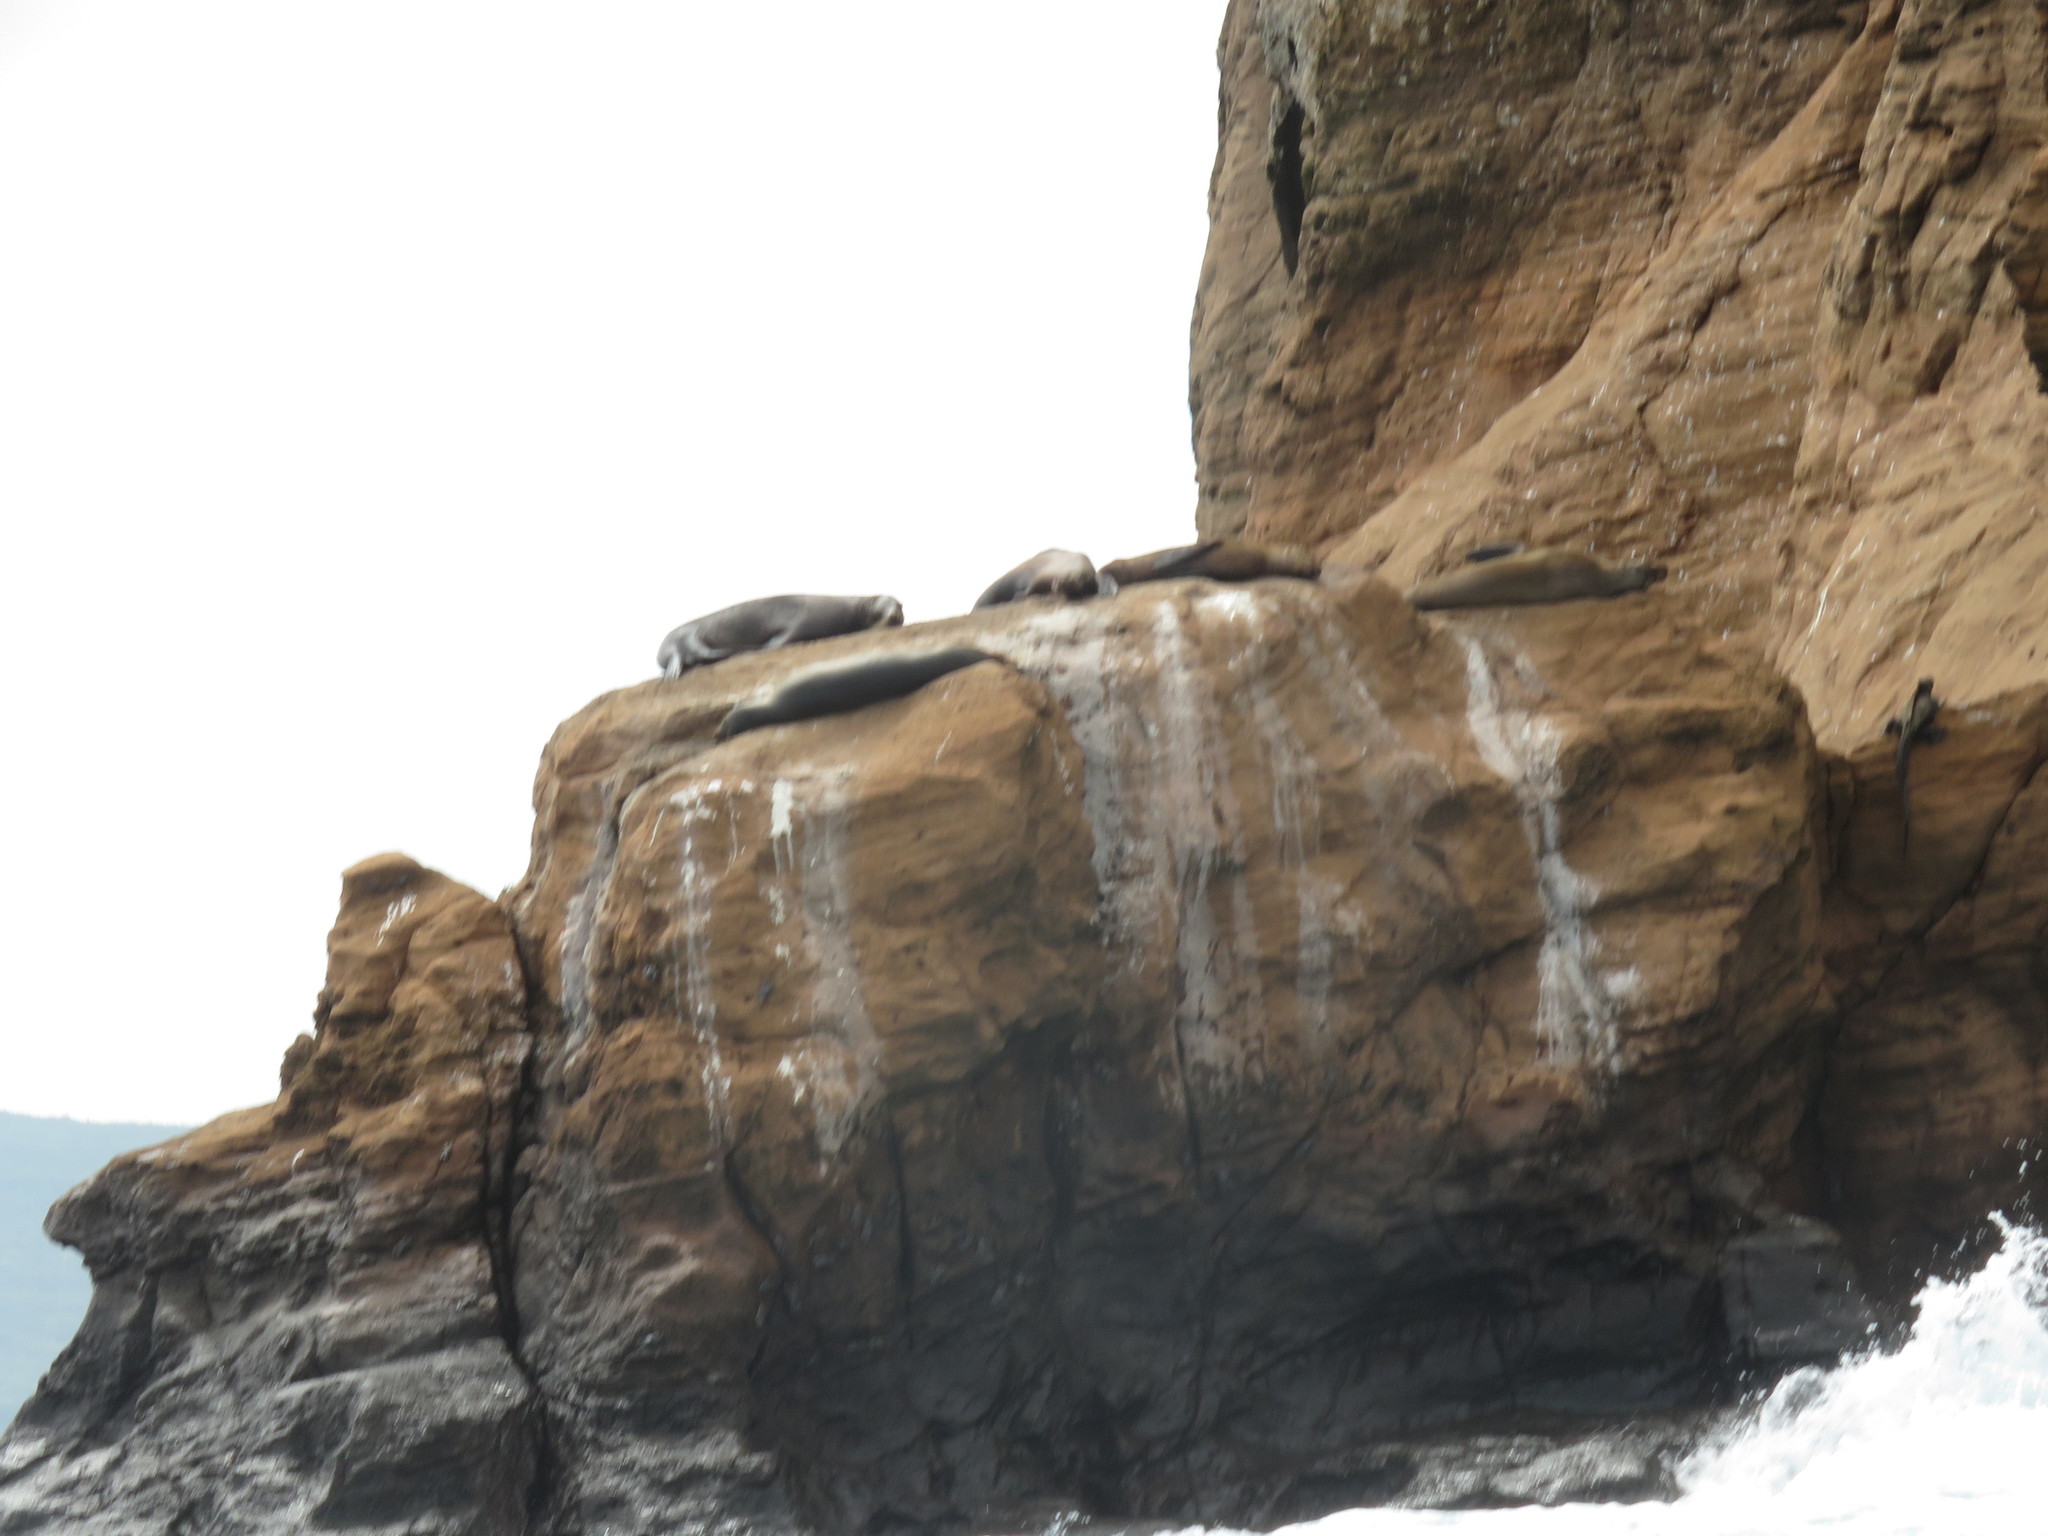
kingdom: Animalia
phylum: Chordata
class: Mammalia
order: Carnivora
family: Otariidae
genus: Zalophus
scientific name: Zalophus wollebaeki
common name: Galapagos sea lion
